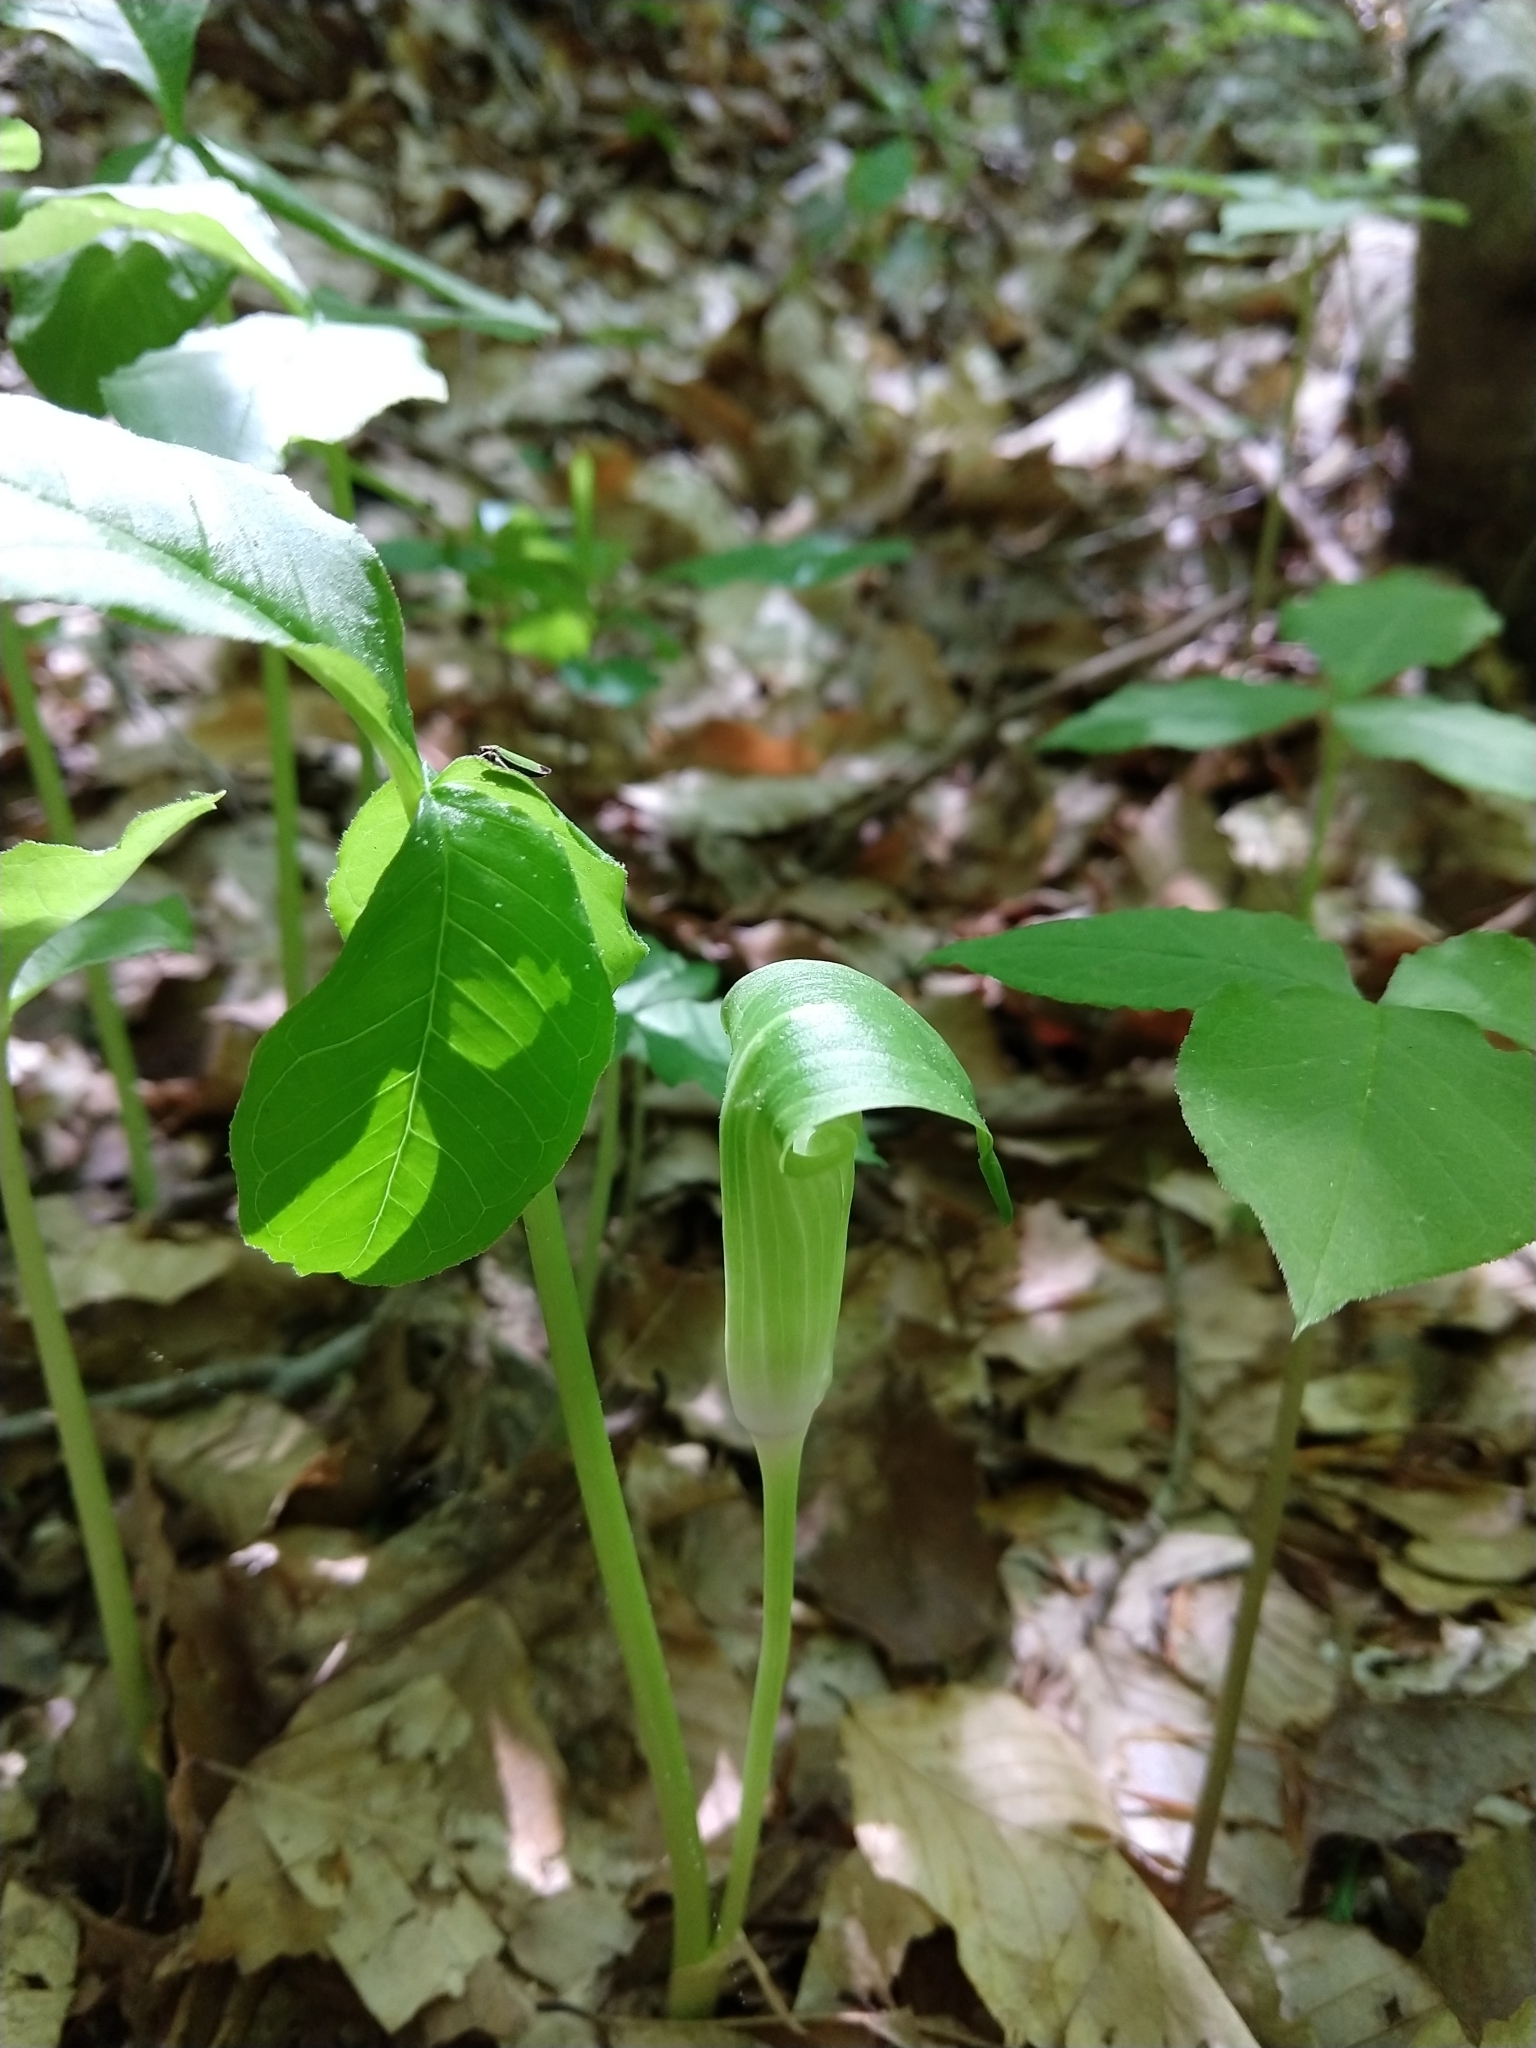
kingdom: Plantae
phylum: Tracheophyta
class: Liliopsida
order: Alismatales
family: Araceae
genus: Arisaema
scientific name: Arisaema triphyllum
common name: Jack-in-the-pulpit
